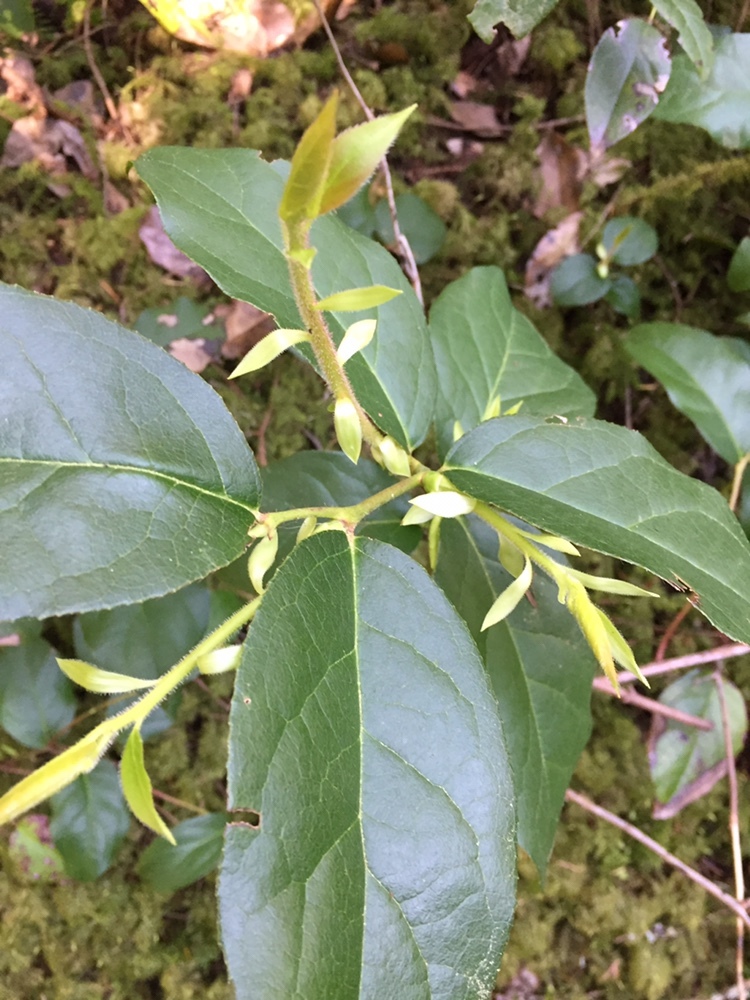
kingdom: Plantae
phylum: Tracheophyta
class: Magnoliopsida
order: Ericales
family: Ericaceae
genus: Gaultheria
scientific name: Gaultheria shallon
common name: Shallon
